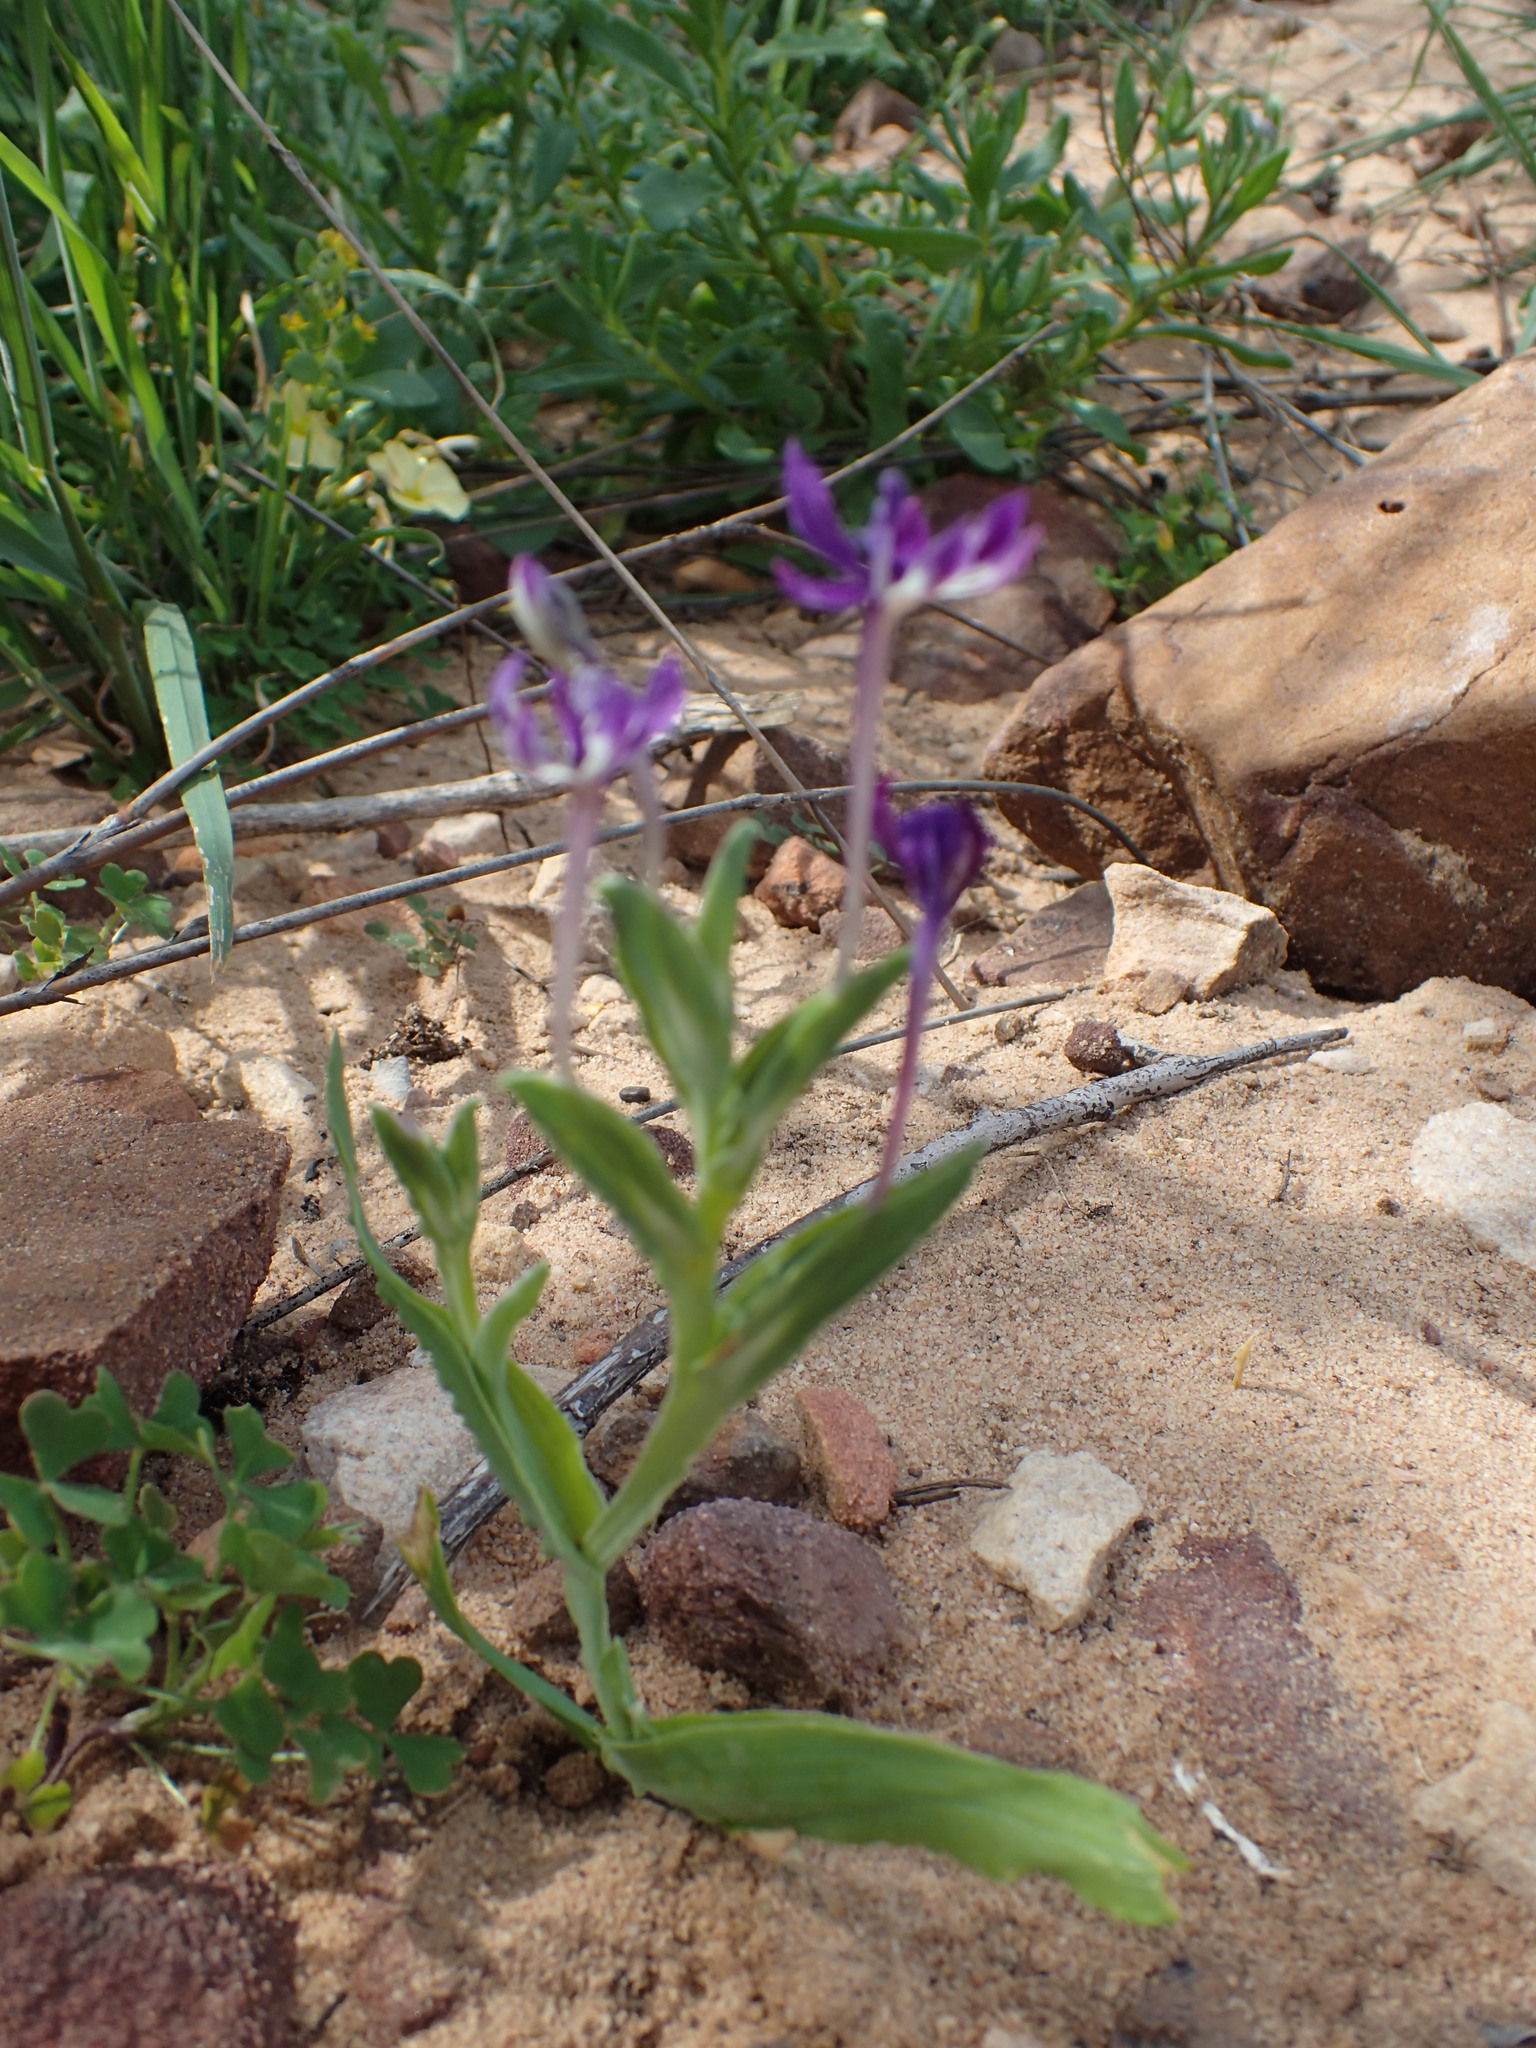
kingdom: Plantae
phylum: Tracheophyta
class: Liliopsida
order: Asparagales
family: Iridaceae
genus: Lapeirousia
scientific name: Lapeirousia jacquinii
